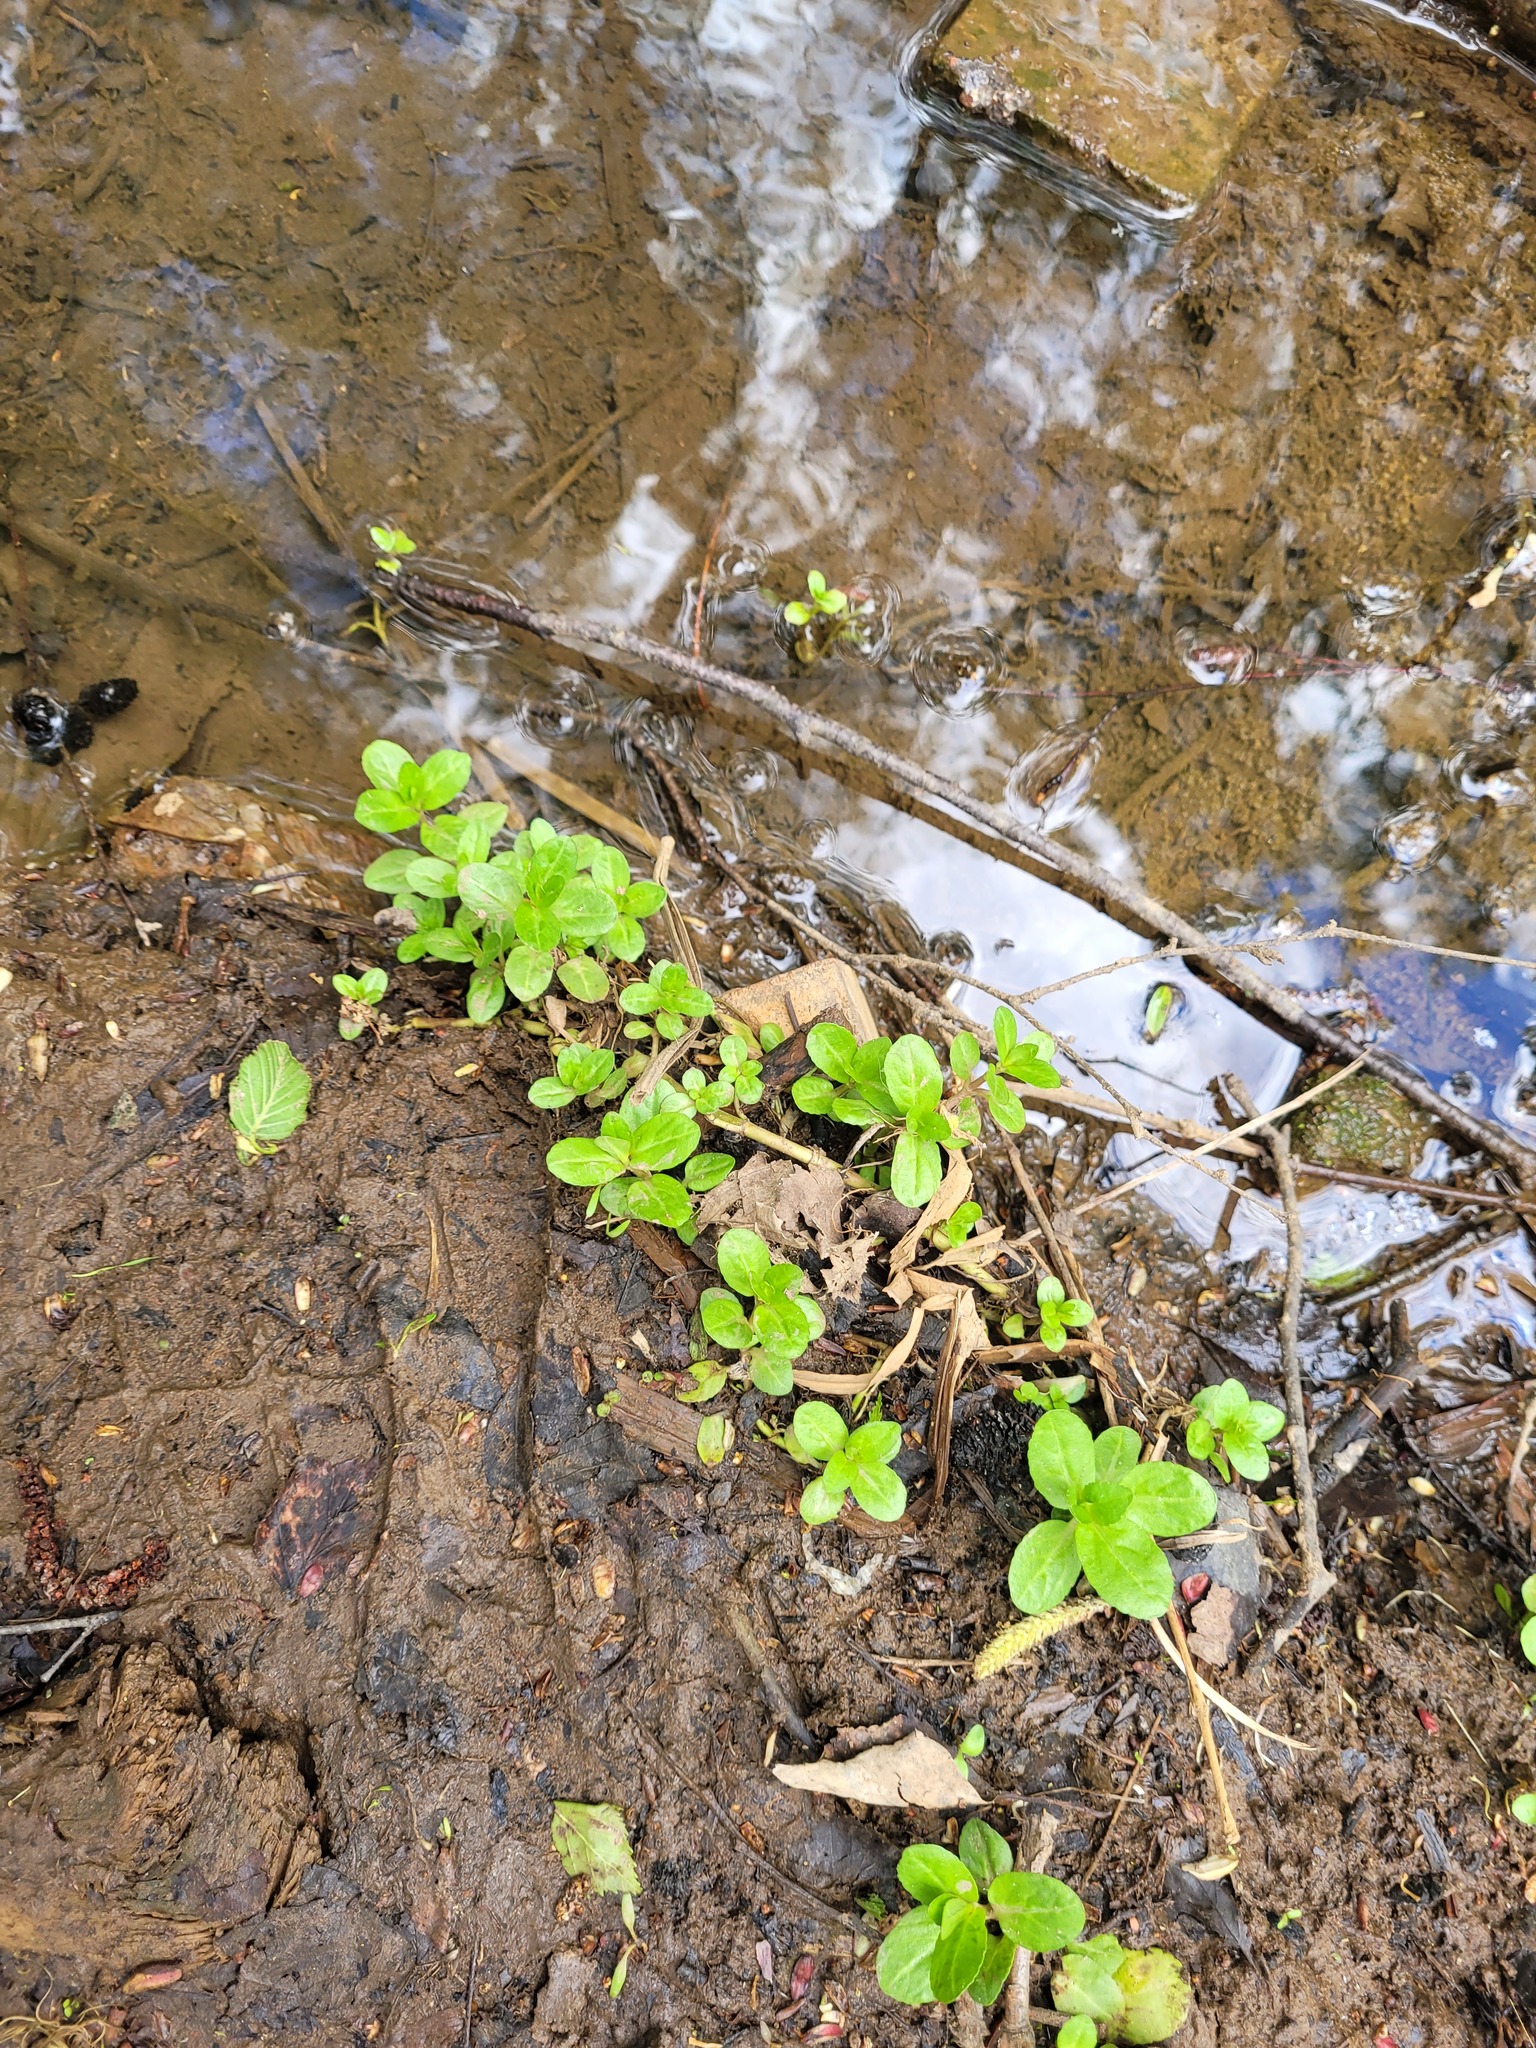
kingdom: Plantae
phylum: Tracheophyta
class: Magnoliopsida
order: Lamiales
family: Plantaginaceae
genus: Veronica
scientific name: Veronica beccabunga
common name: Brooklime
